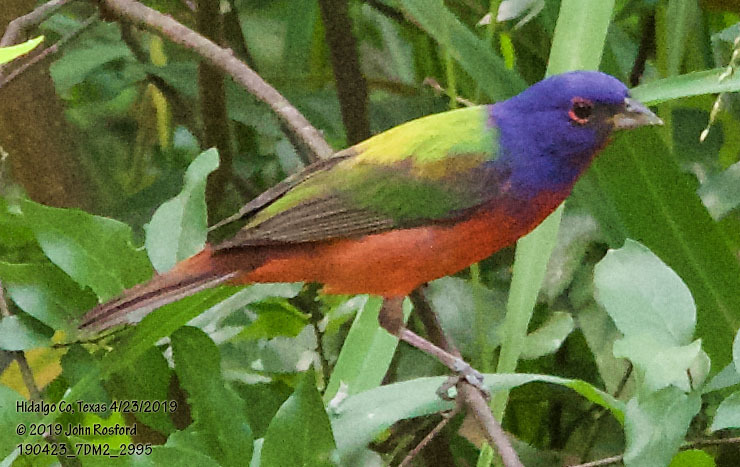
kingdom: Animalia
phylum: Chordata
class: Aves
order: Passeriformes
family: Cardinalidae
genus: Passerina
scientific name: Passerina ciris
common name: Painted bunting
